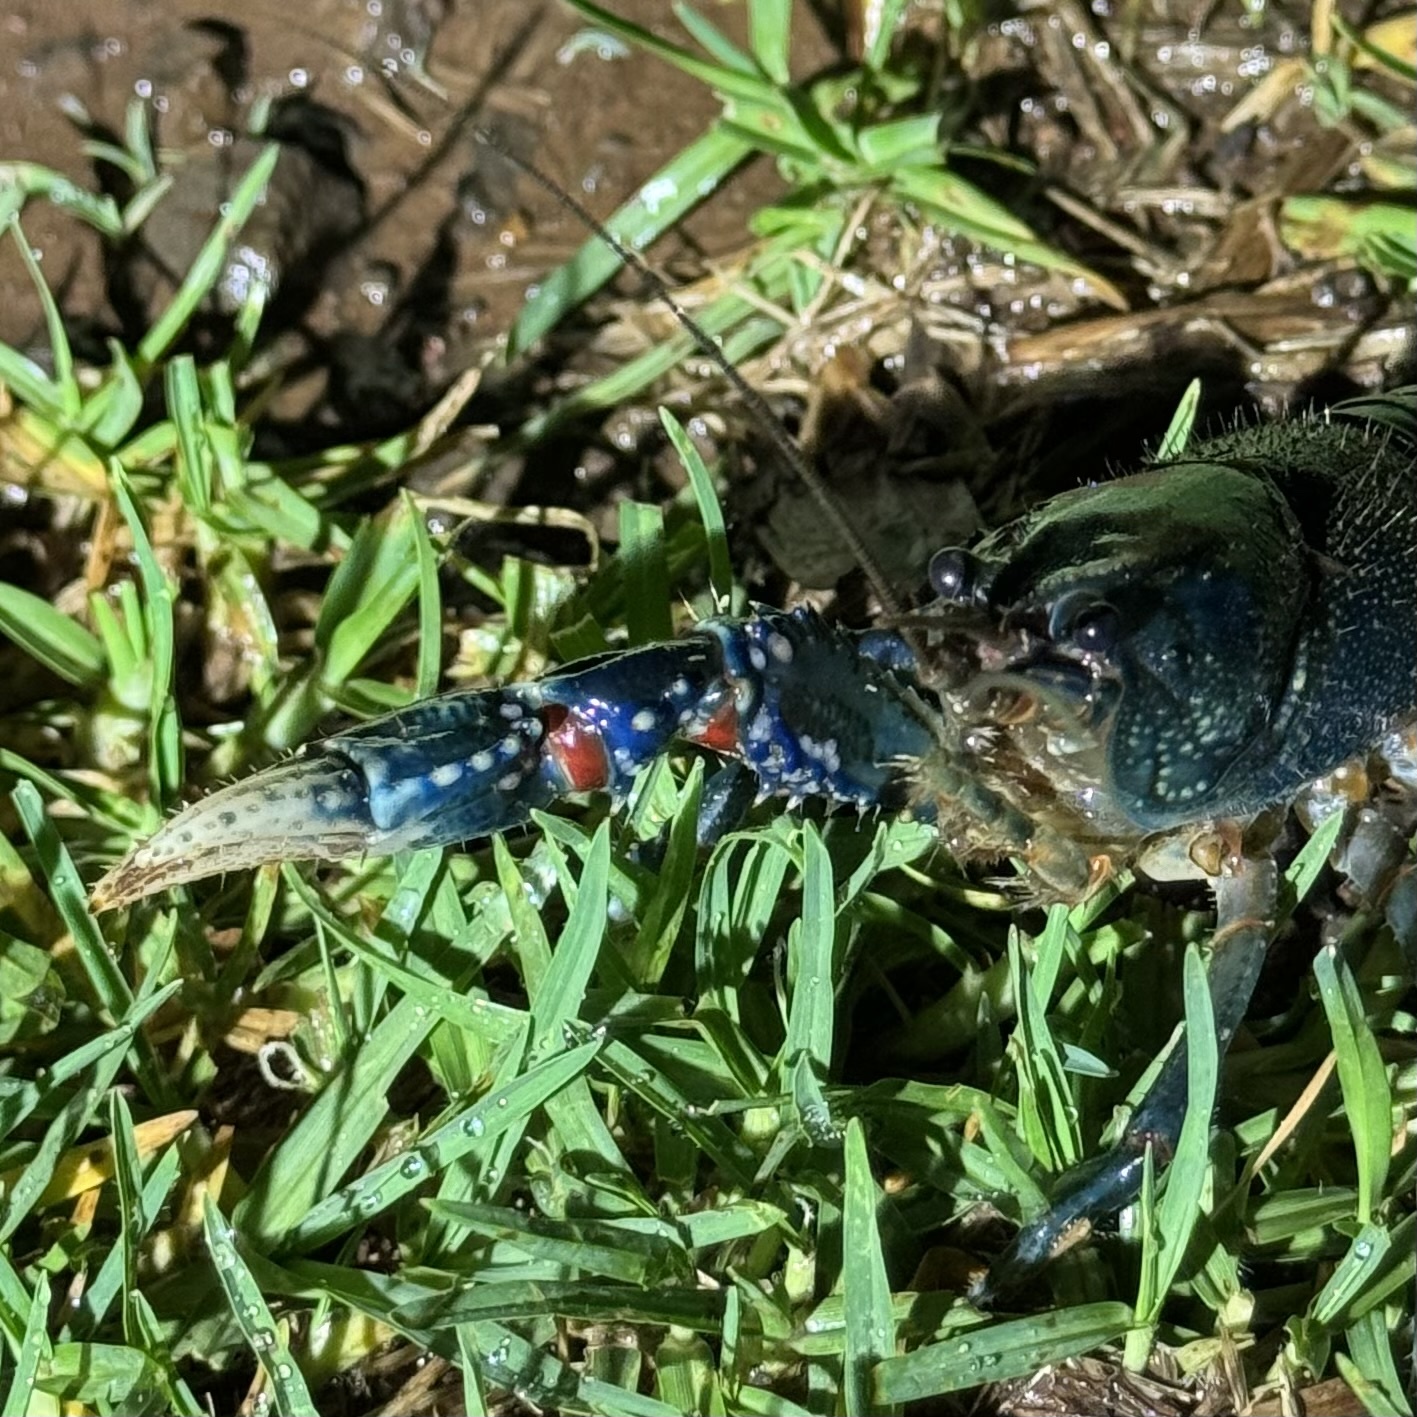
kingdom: Animalia
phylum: Arthropoda
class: Malacostraca
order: Decapoda
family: Parastacidae
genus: Euastacus
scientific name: Euastacus sulcatus
